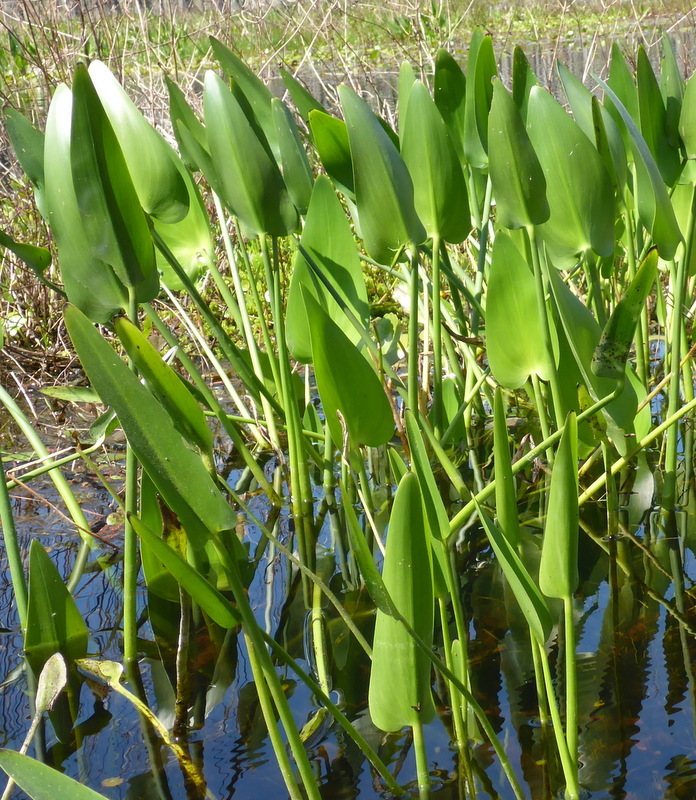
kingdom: Plantae
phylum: Tracheophyta
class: Liliopsida
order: Commelinales
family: Pontederiaceae
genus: Pontederia
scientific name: Pontederia cordata
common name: Pickerelweed
